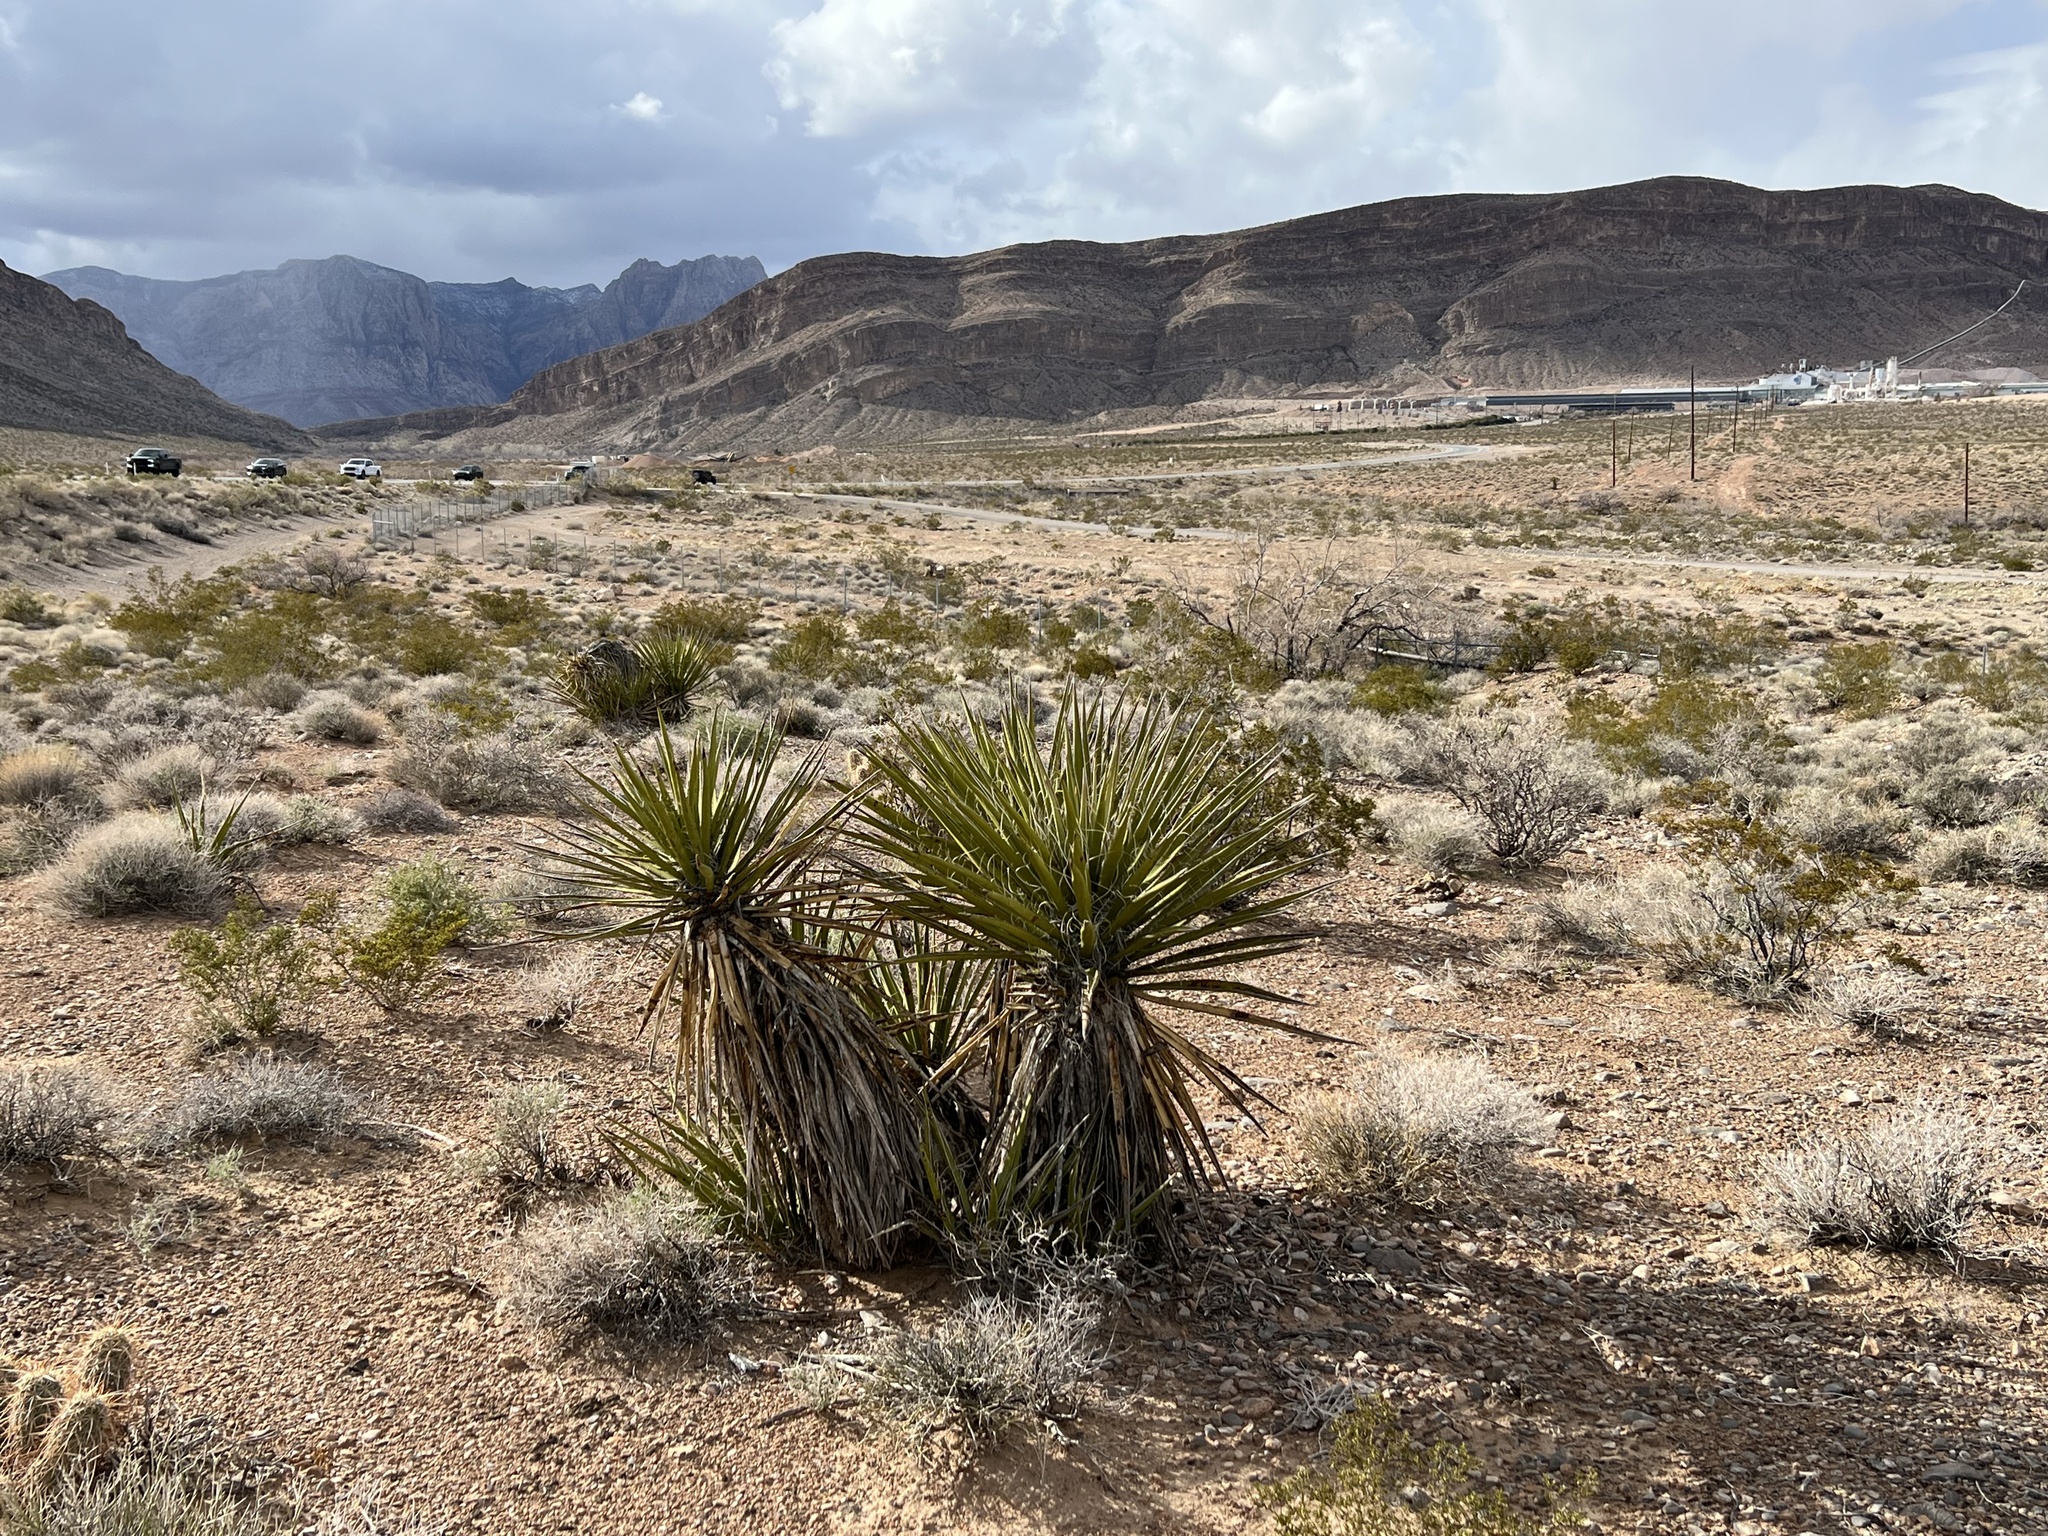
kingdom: Plantae
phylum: Tracheophyta
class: Liliopsida
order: Asparagales
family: Asparagaceae
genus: Yucca
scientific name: Yucca schidigera
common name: Mojave yucca
